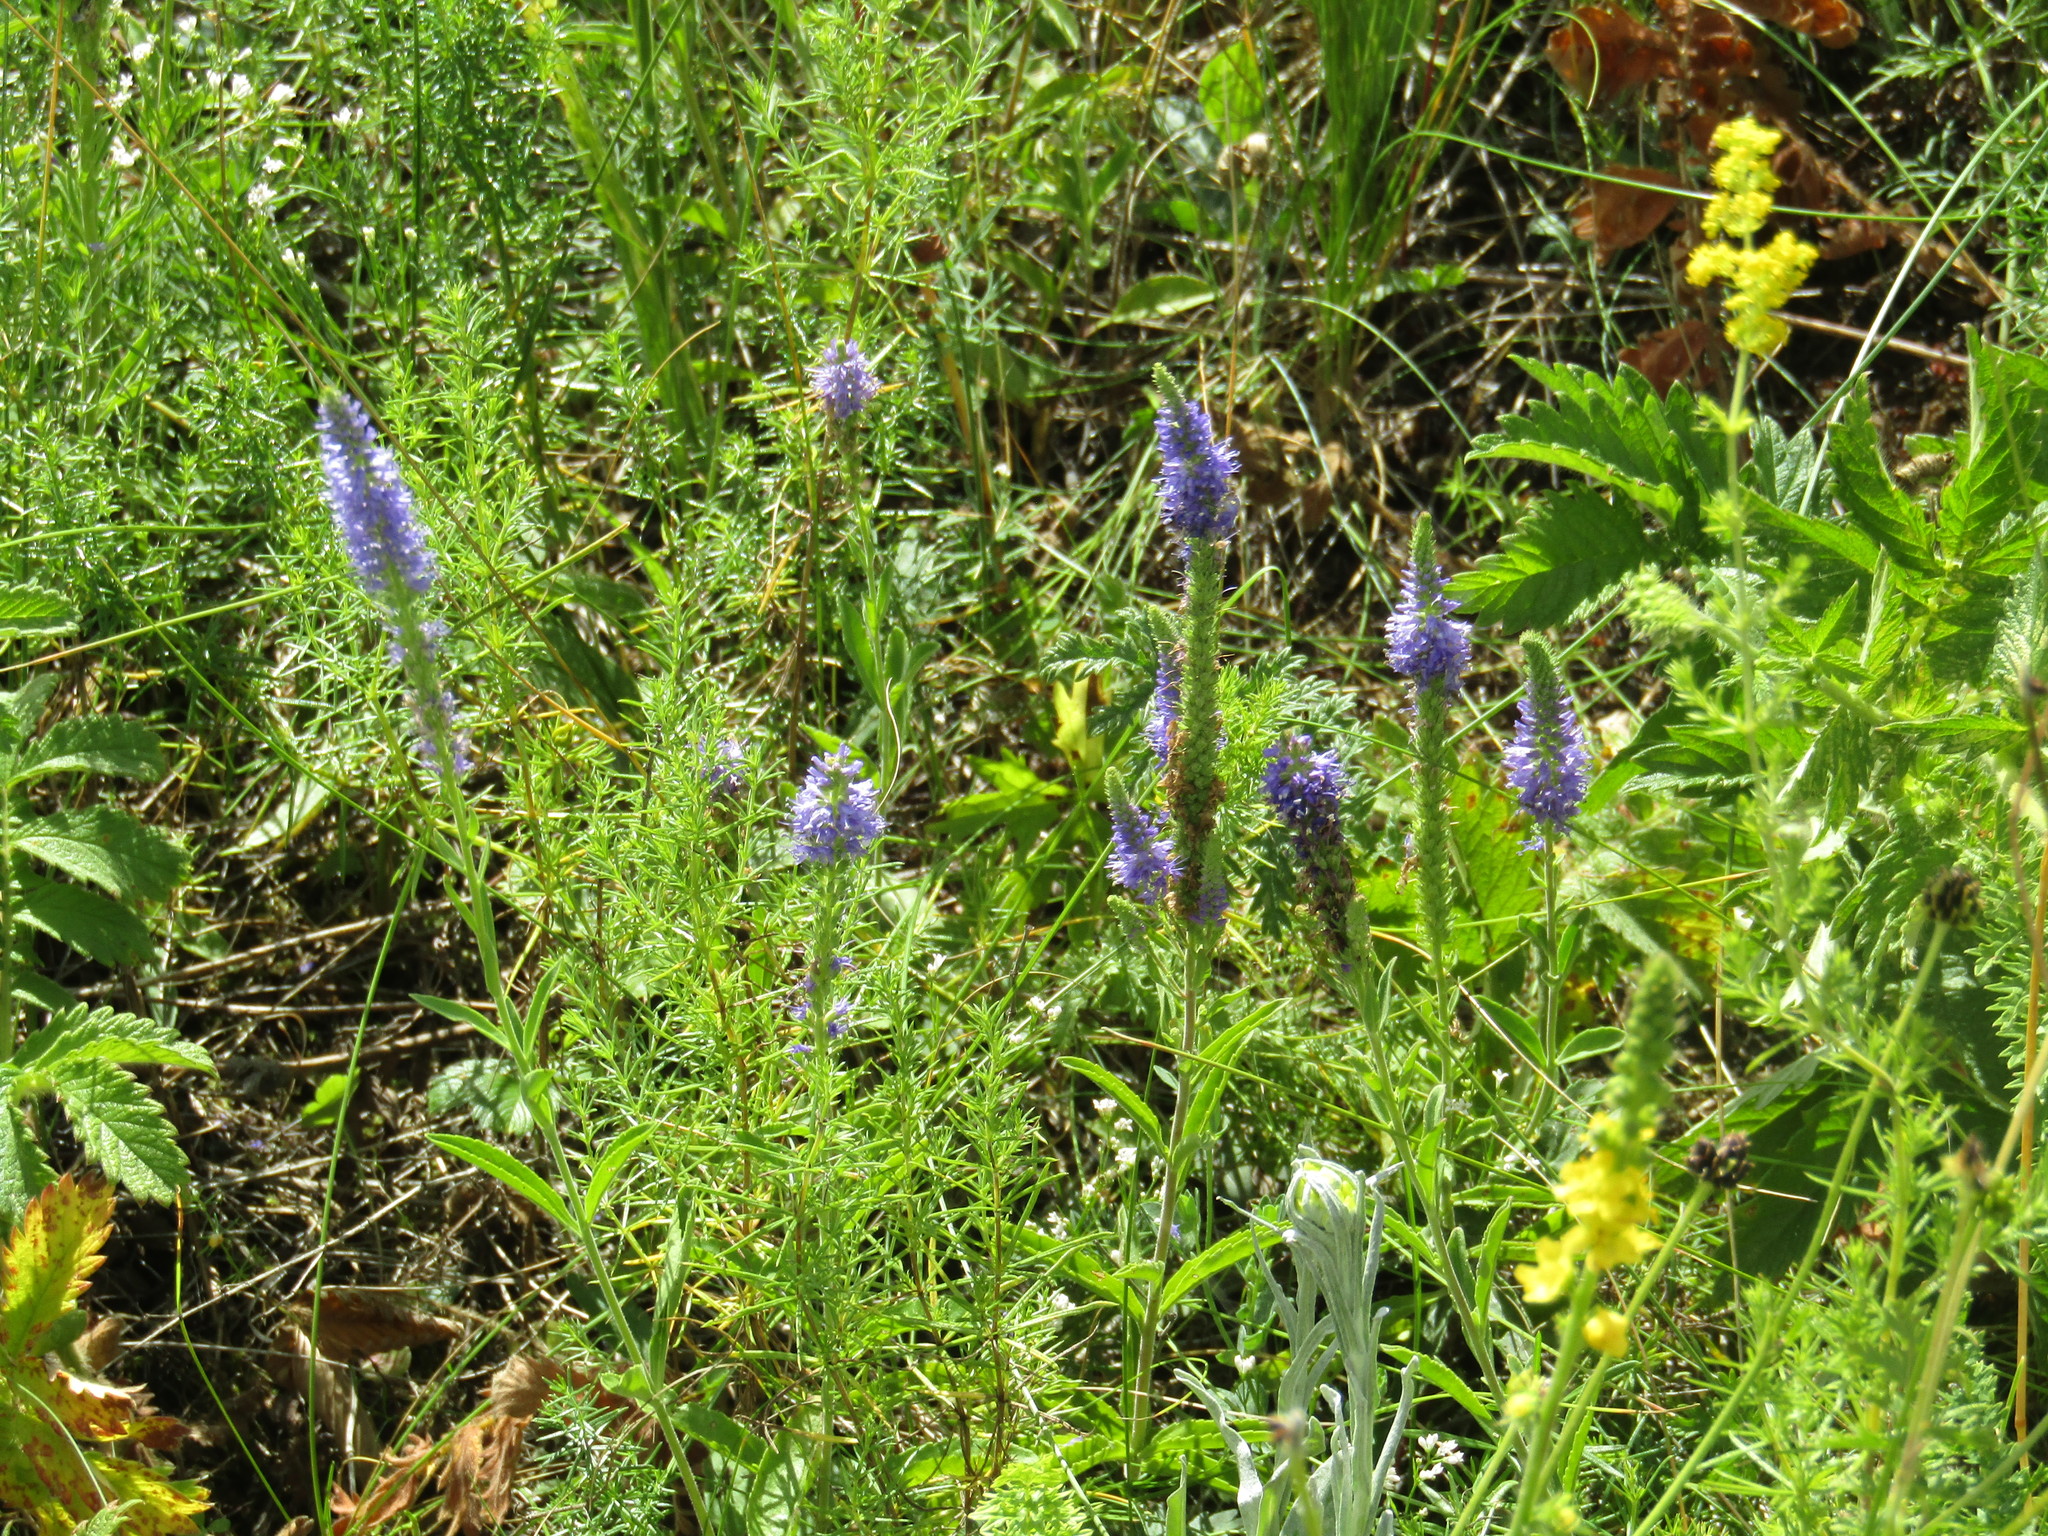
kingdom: Plantae
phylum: Tracheophyta
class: Magnoliopsida
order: Lamiales
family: Plantaginaceae
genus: Veronica
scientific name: Veronica spicata
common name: Spiked speedwell
